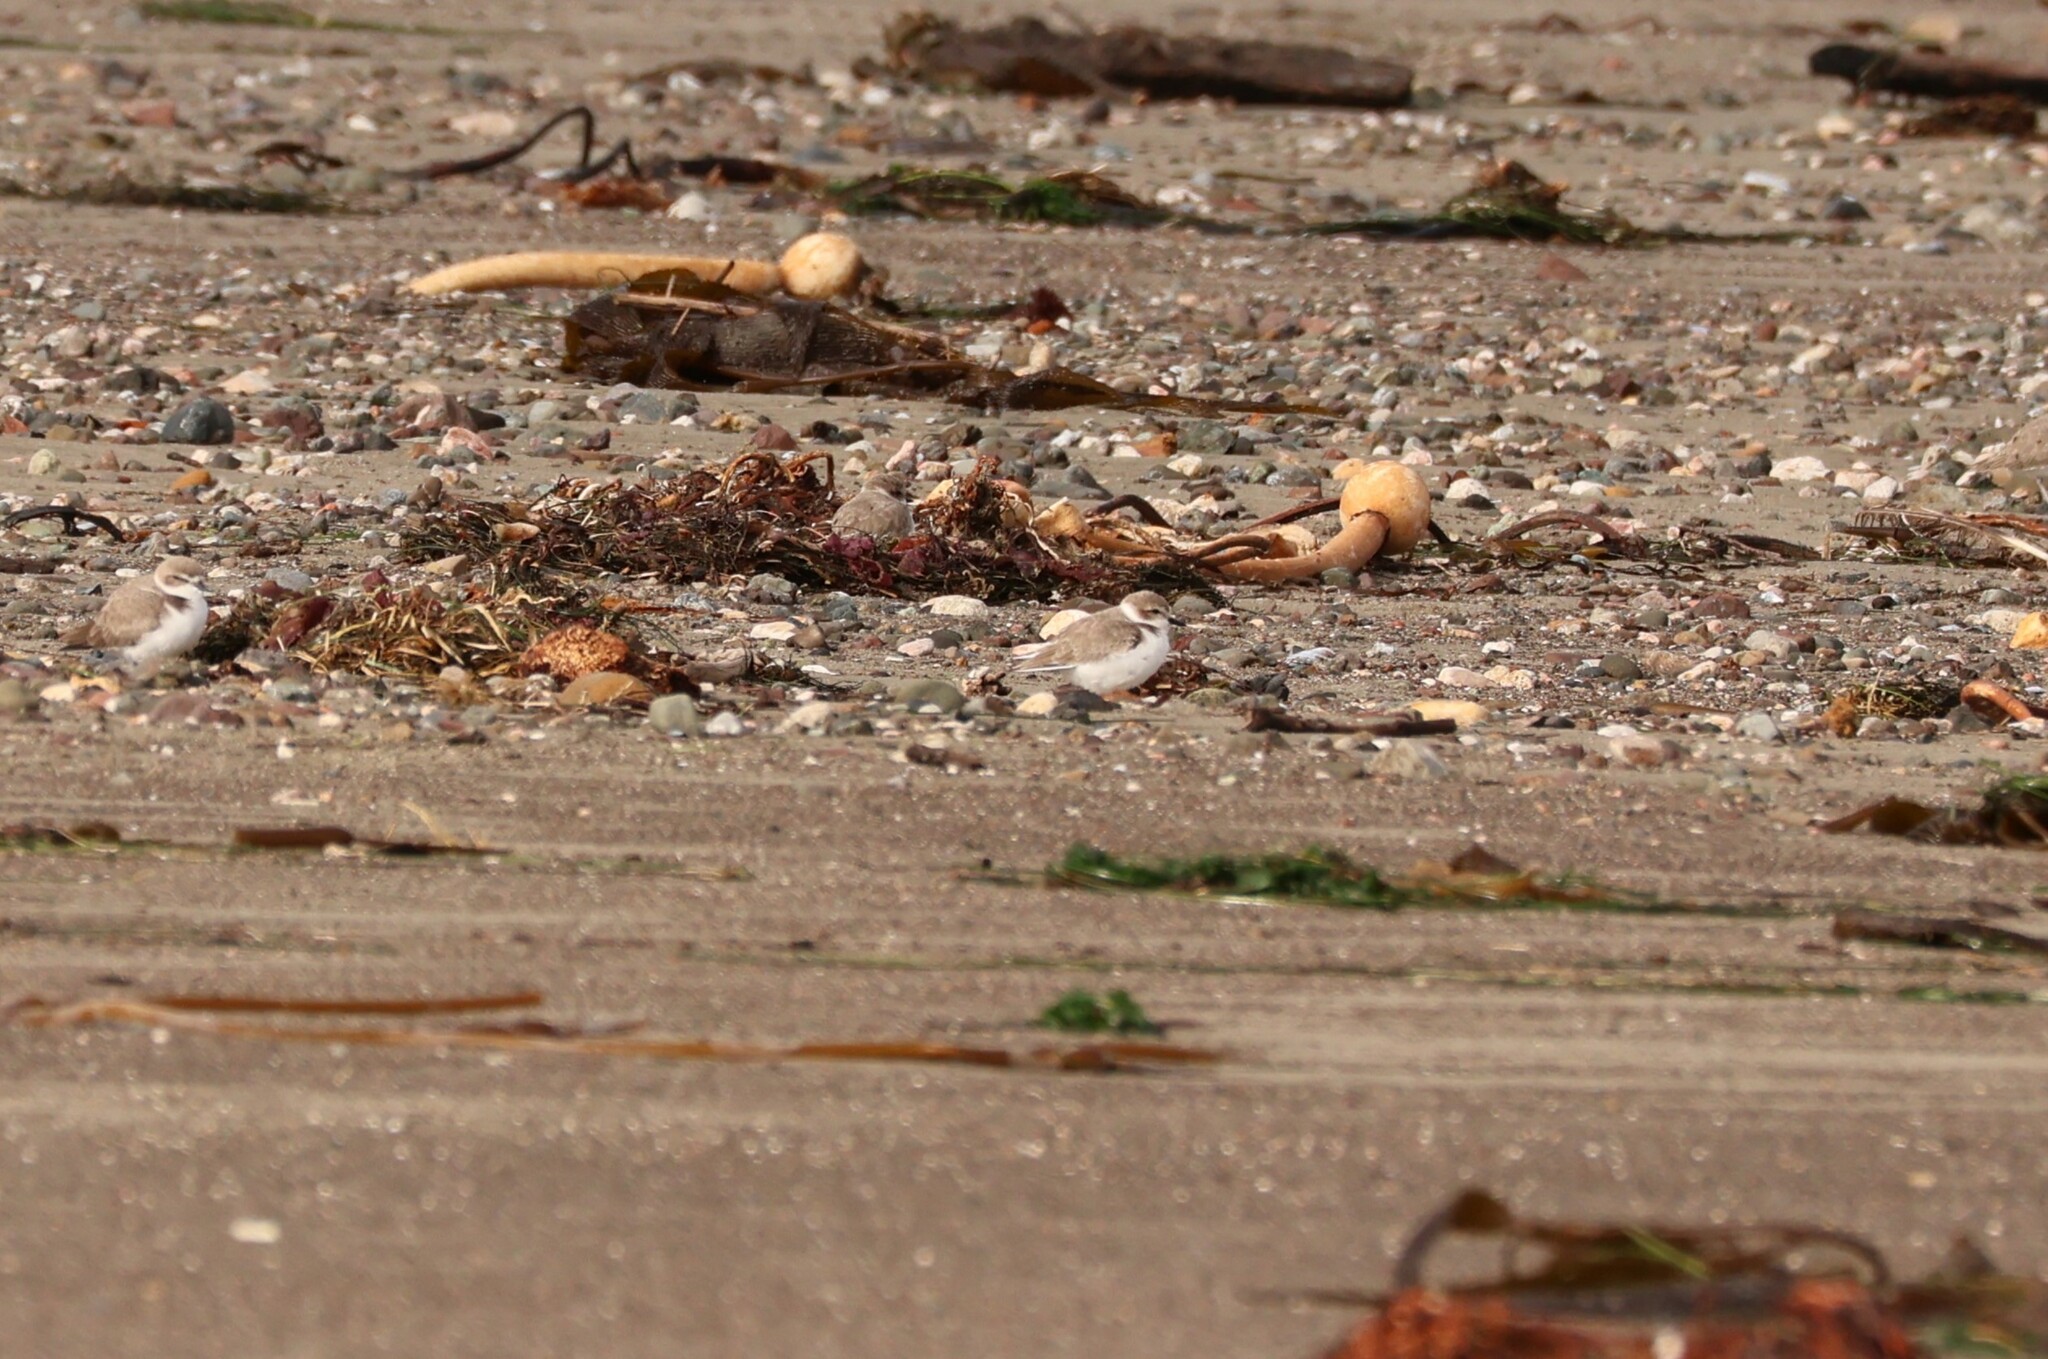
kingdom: Animalia
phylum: Chordata
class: Aves
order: Charadriiformes
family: Charadriidae
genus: Anarhynchus
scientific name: Anarhynchus
